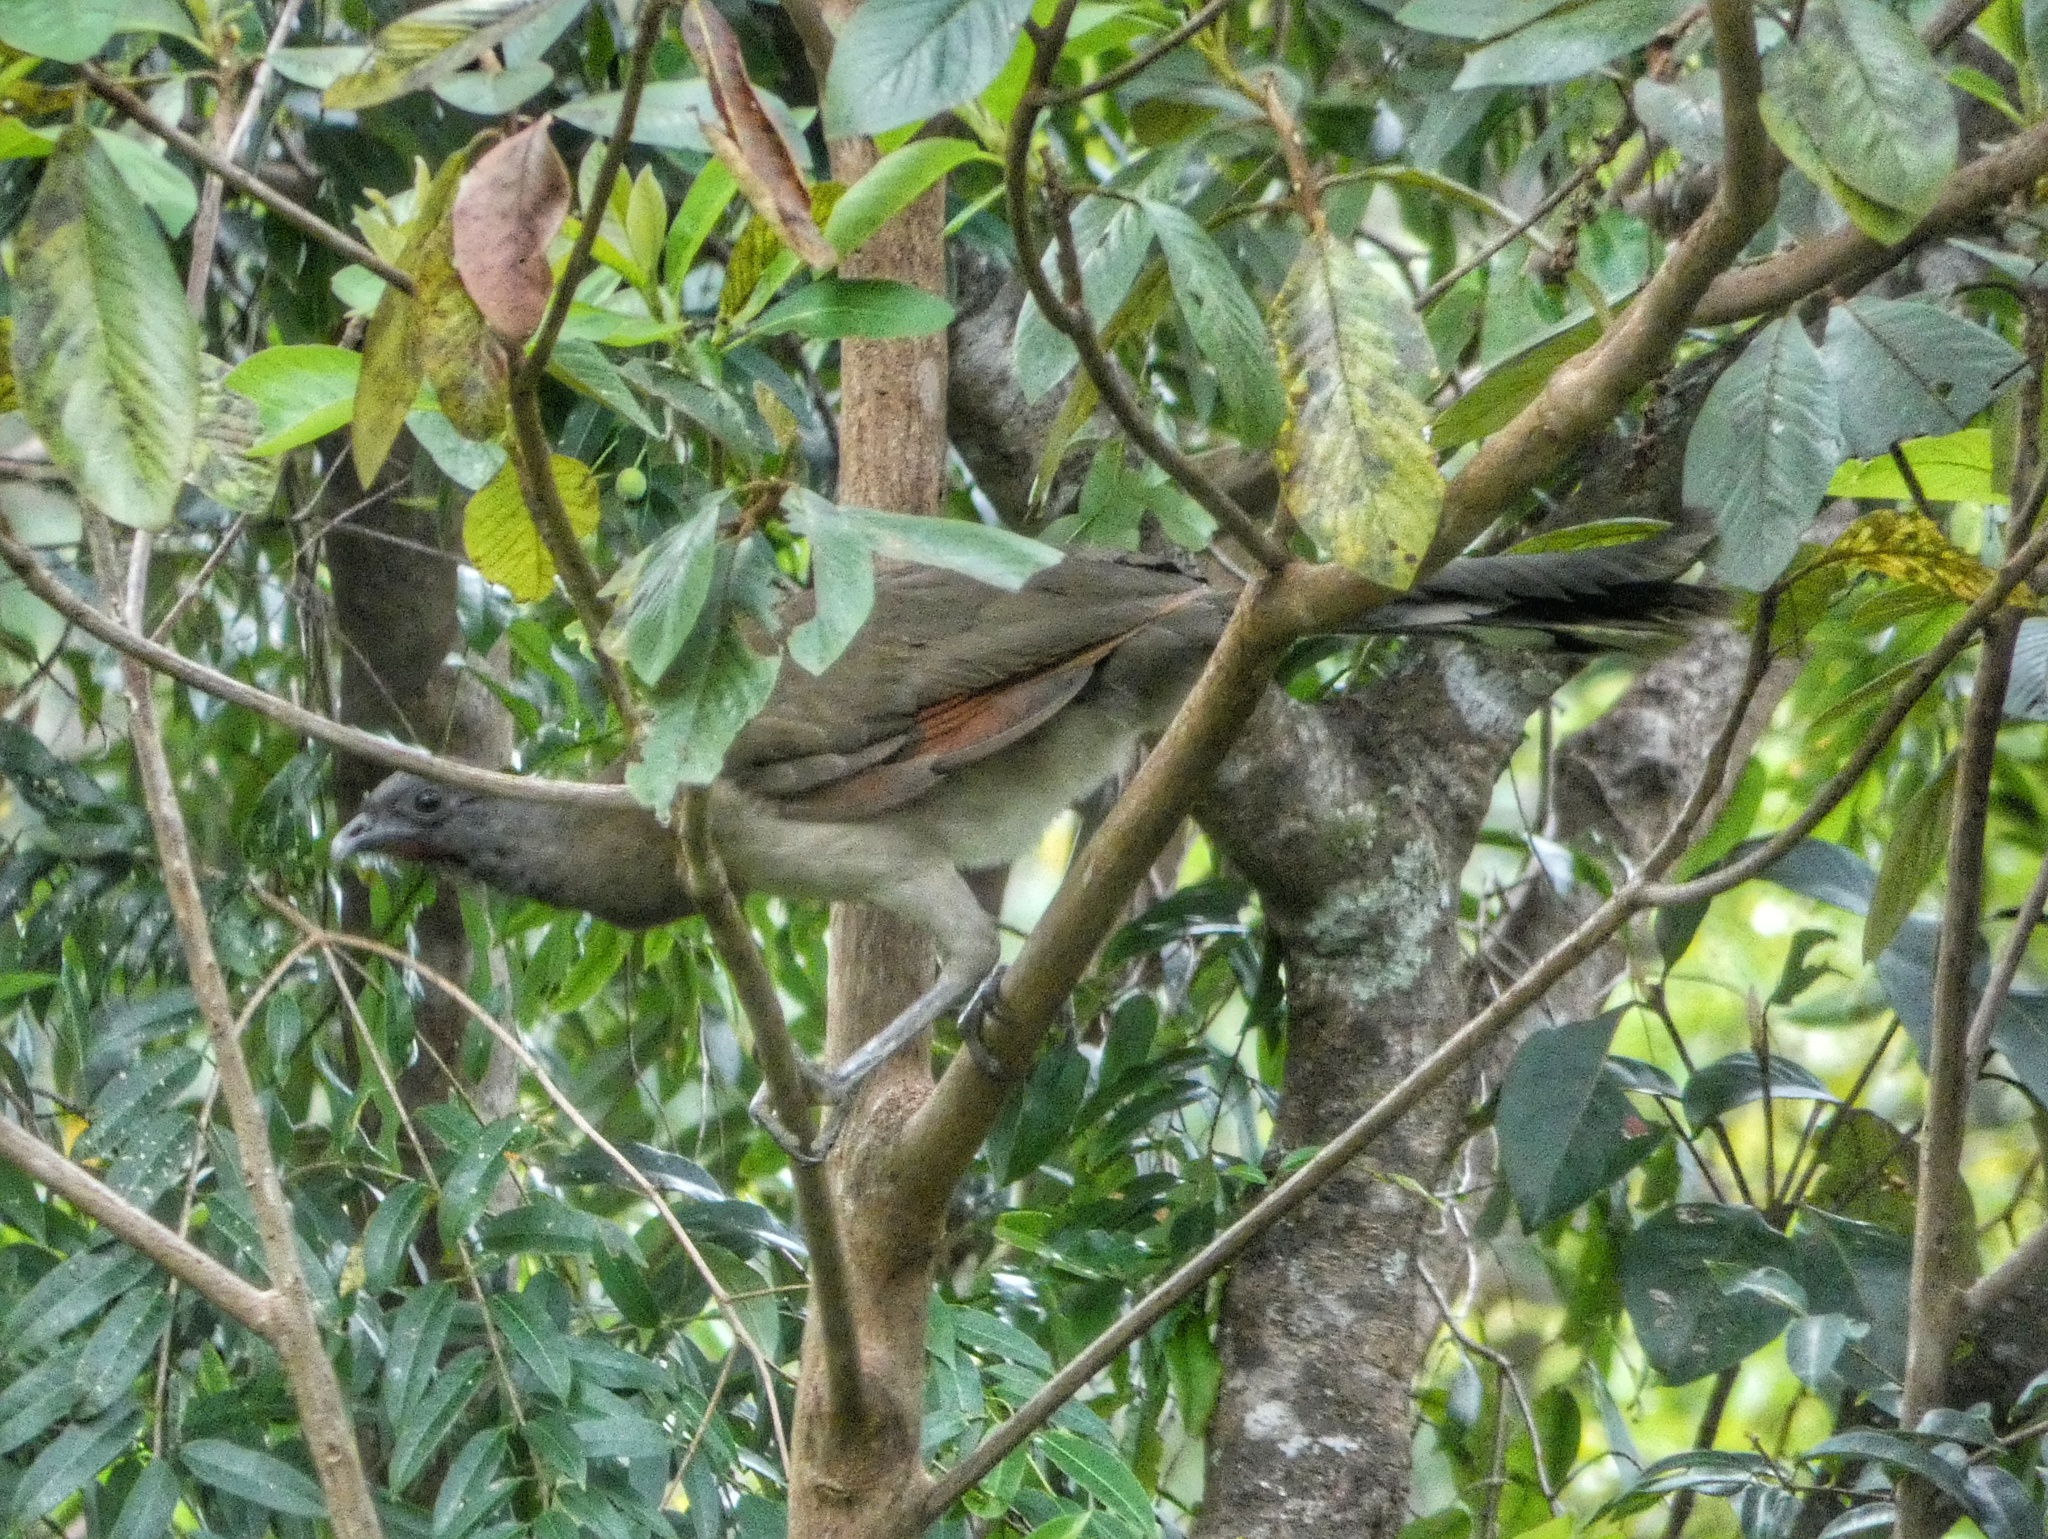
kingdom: Animalia
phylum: Chordata
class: Aves
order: Galliformes
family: Cracidae
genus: Ortalis
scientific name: Ortalis cinereiceps
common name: Grey-headed chachalaca
